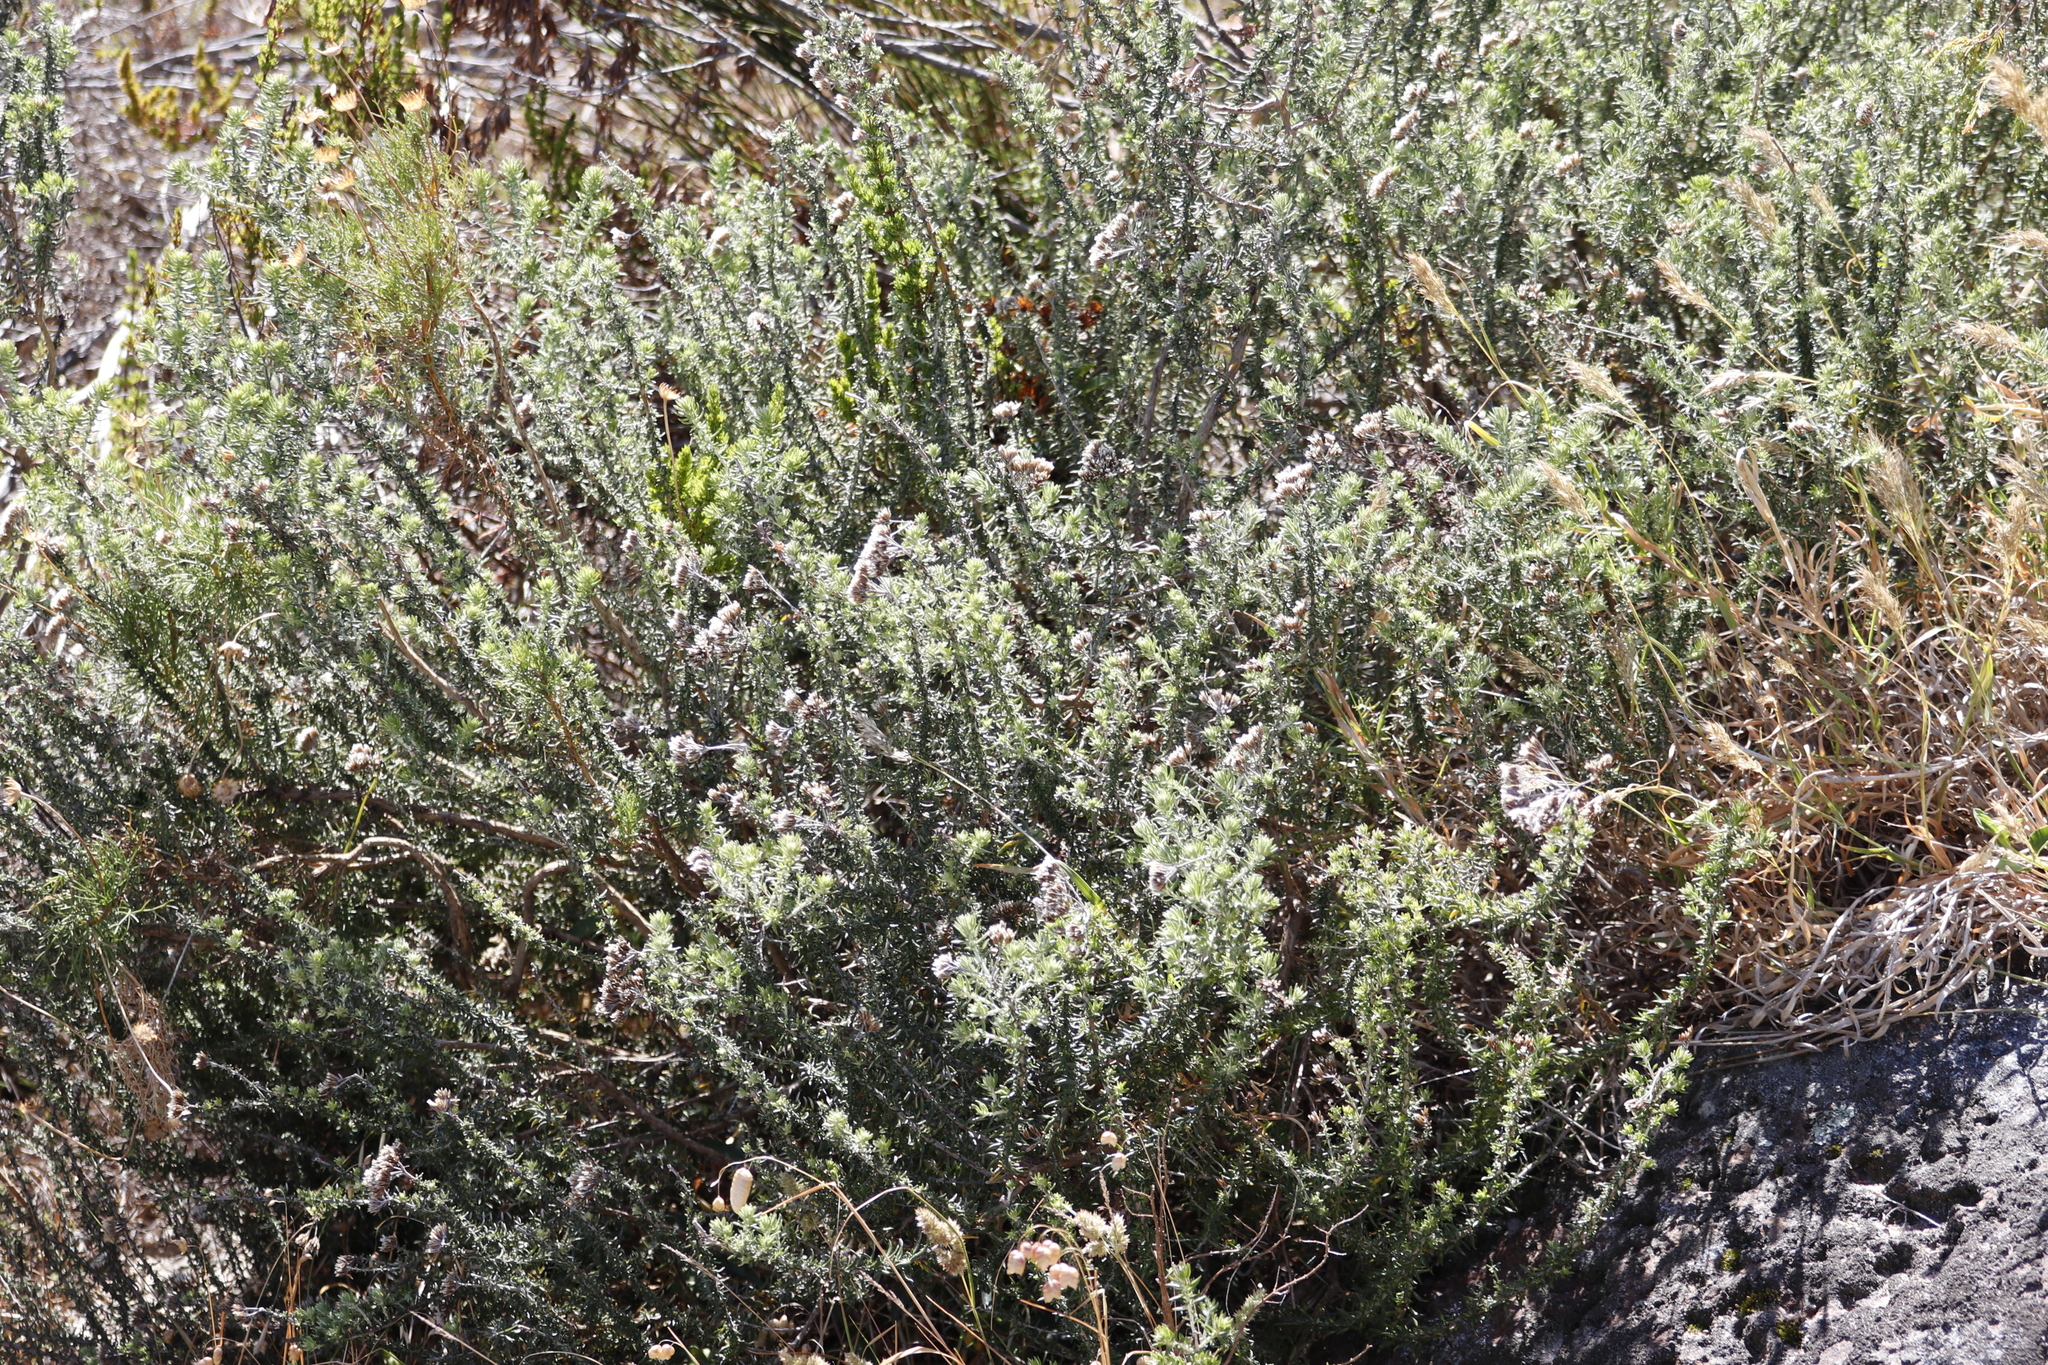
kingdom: Plantae
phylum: Tracheophyta
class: Magnoliopsida
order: Asterales
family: Asteraceae
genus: Metalasia
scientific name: Metalasia densa
